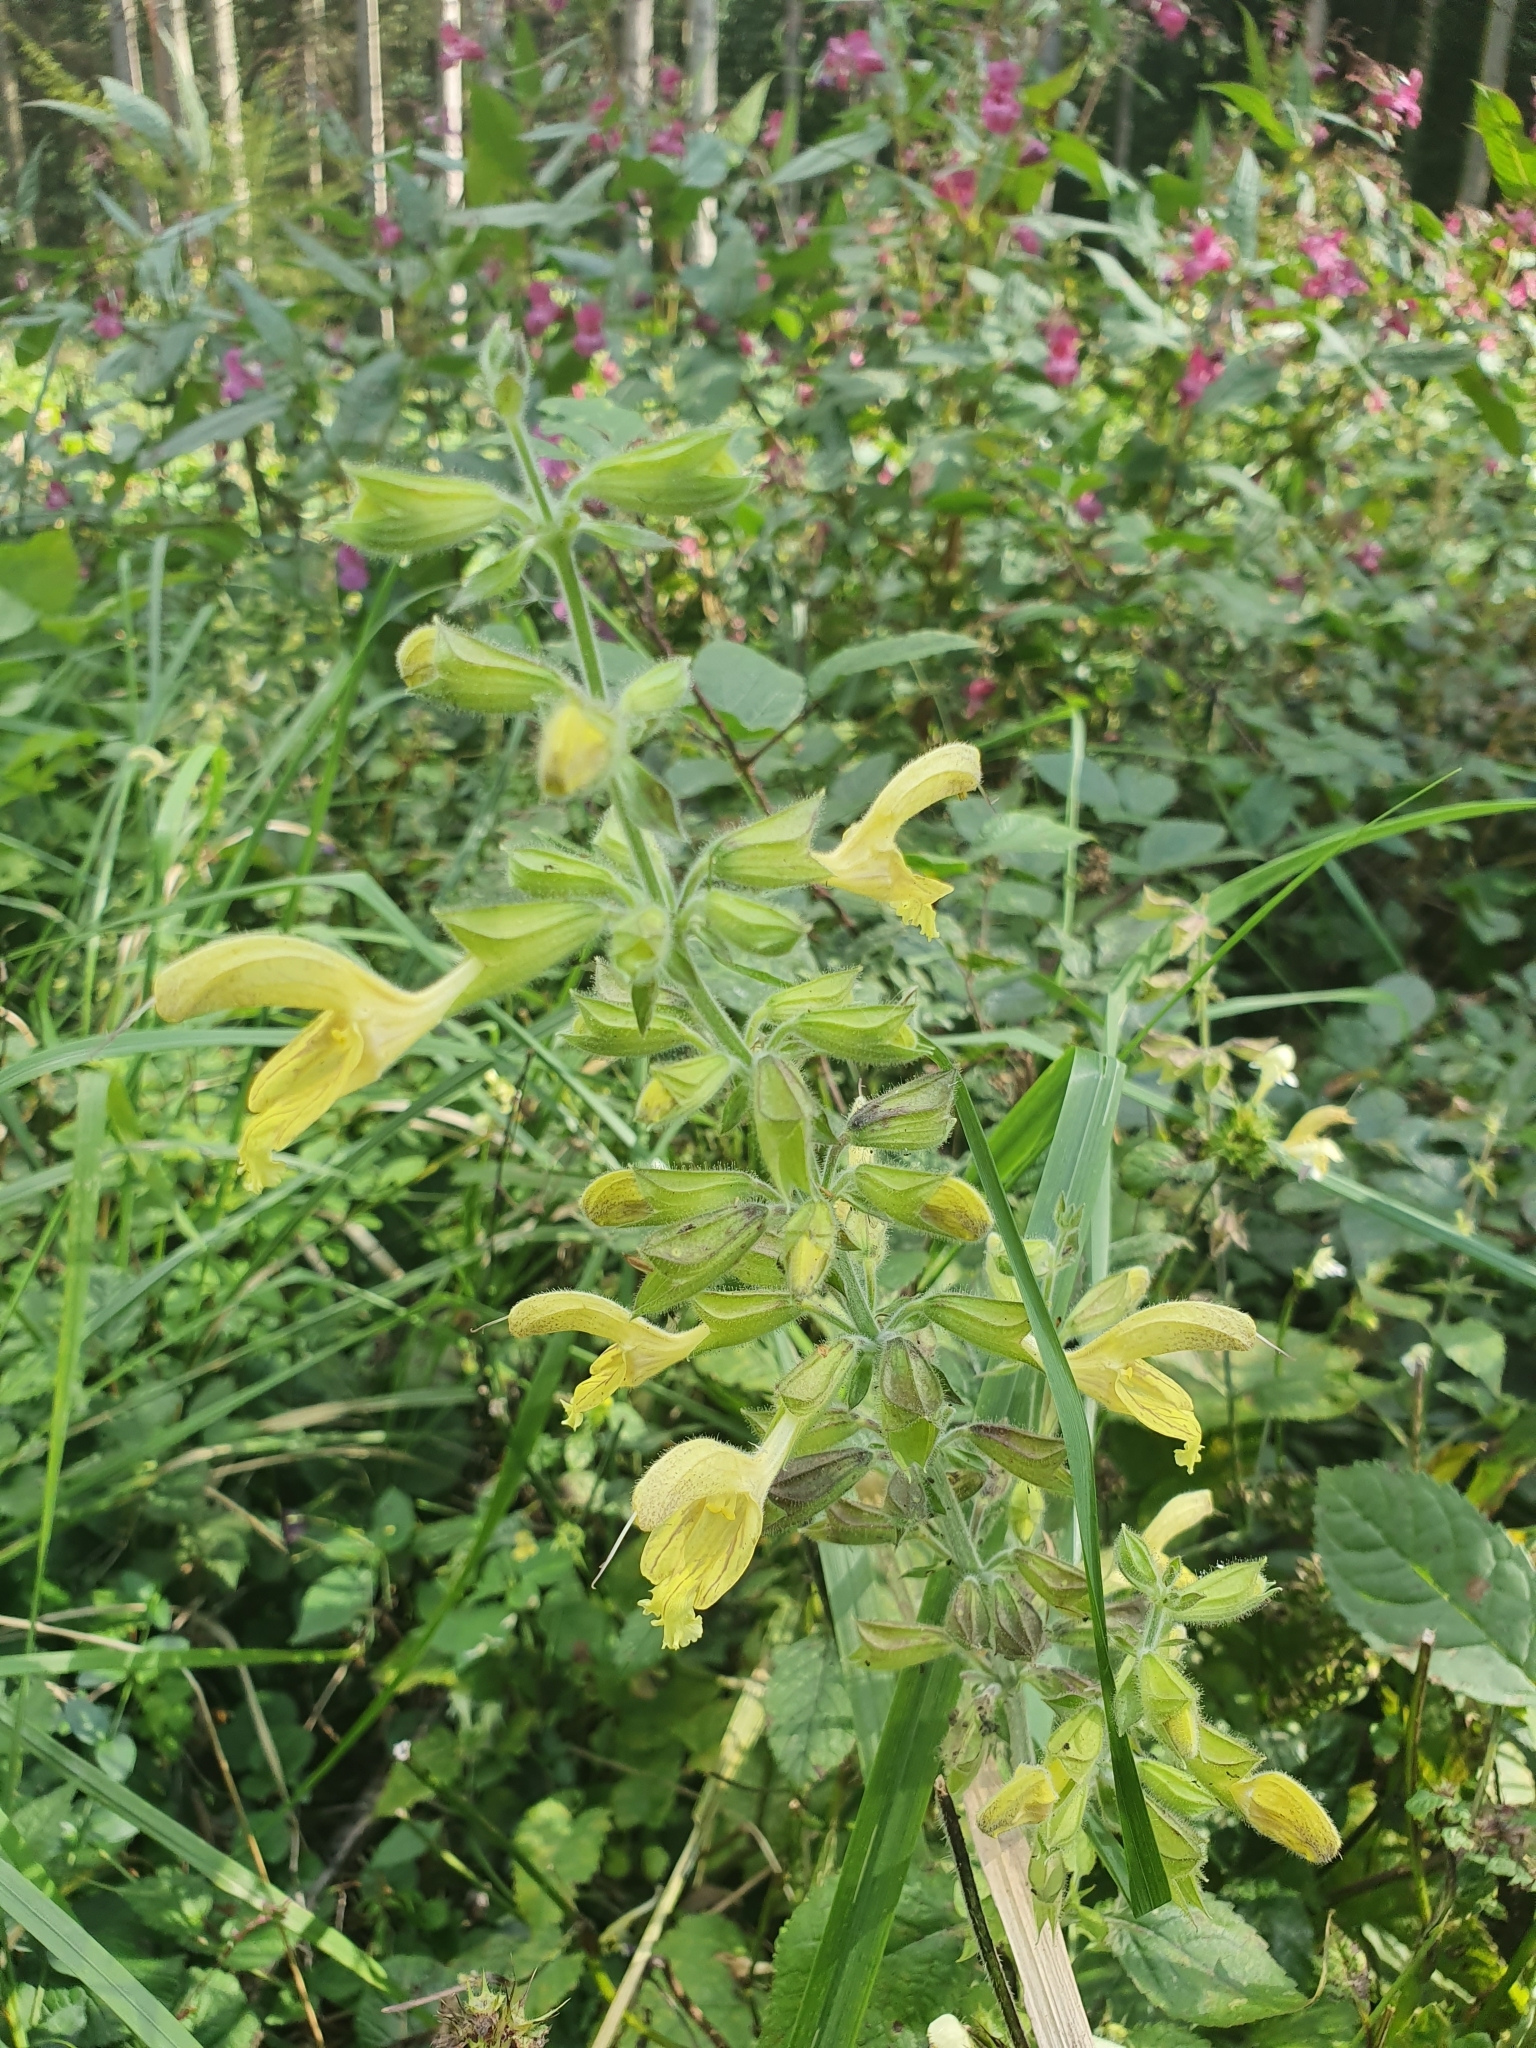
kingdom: Plantae
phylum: Tracheophyta
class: Magnoliopsida
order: Lamiales
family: Lamiaceae
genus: Salvia
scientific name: Salvia glutinosa
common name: Sticky clary
